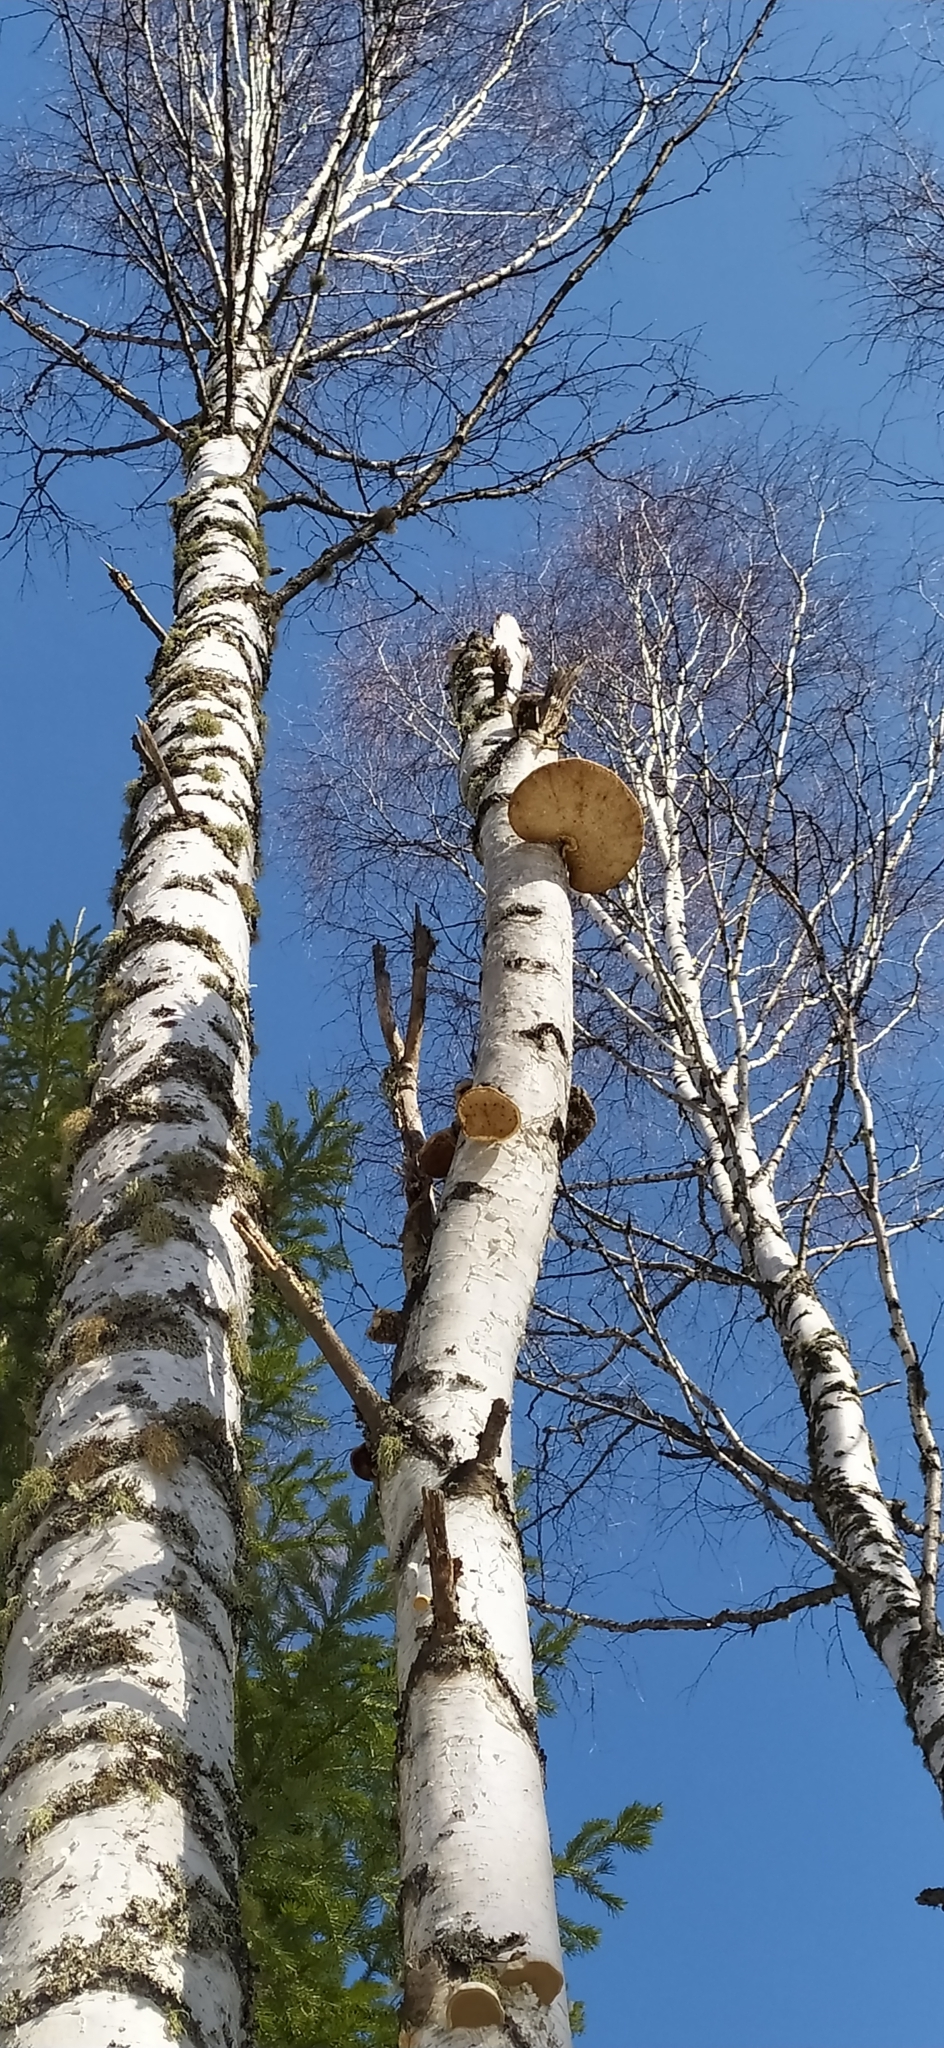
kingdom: Fungi
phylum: Basidiomycota
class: Agaricomycetes
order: Polyporales
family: Fomitopsidaceae
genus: Fomitopsis
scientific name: Fomitopsis betulina
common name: Birch polypore
